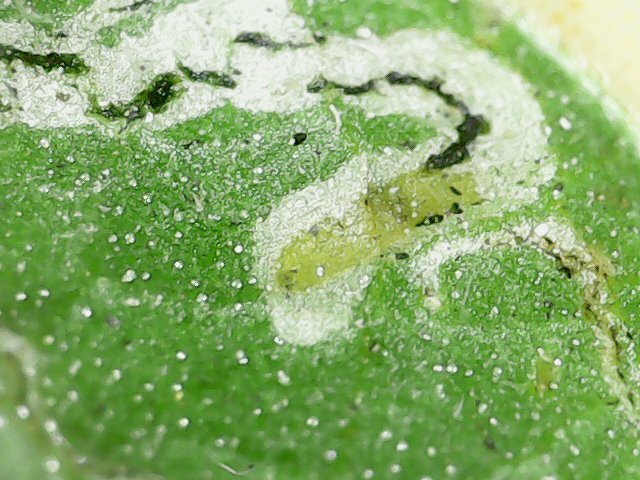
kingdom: Animalia
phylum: Arthropoda
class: Insecta
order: Diptera
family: Agromyzidae
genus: Liriomyza
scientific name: Liriomyza bryoniae
